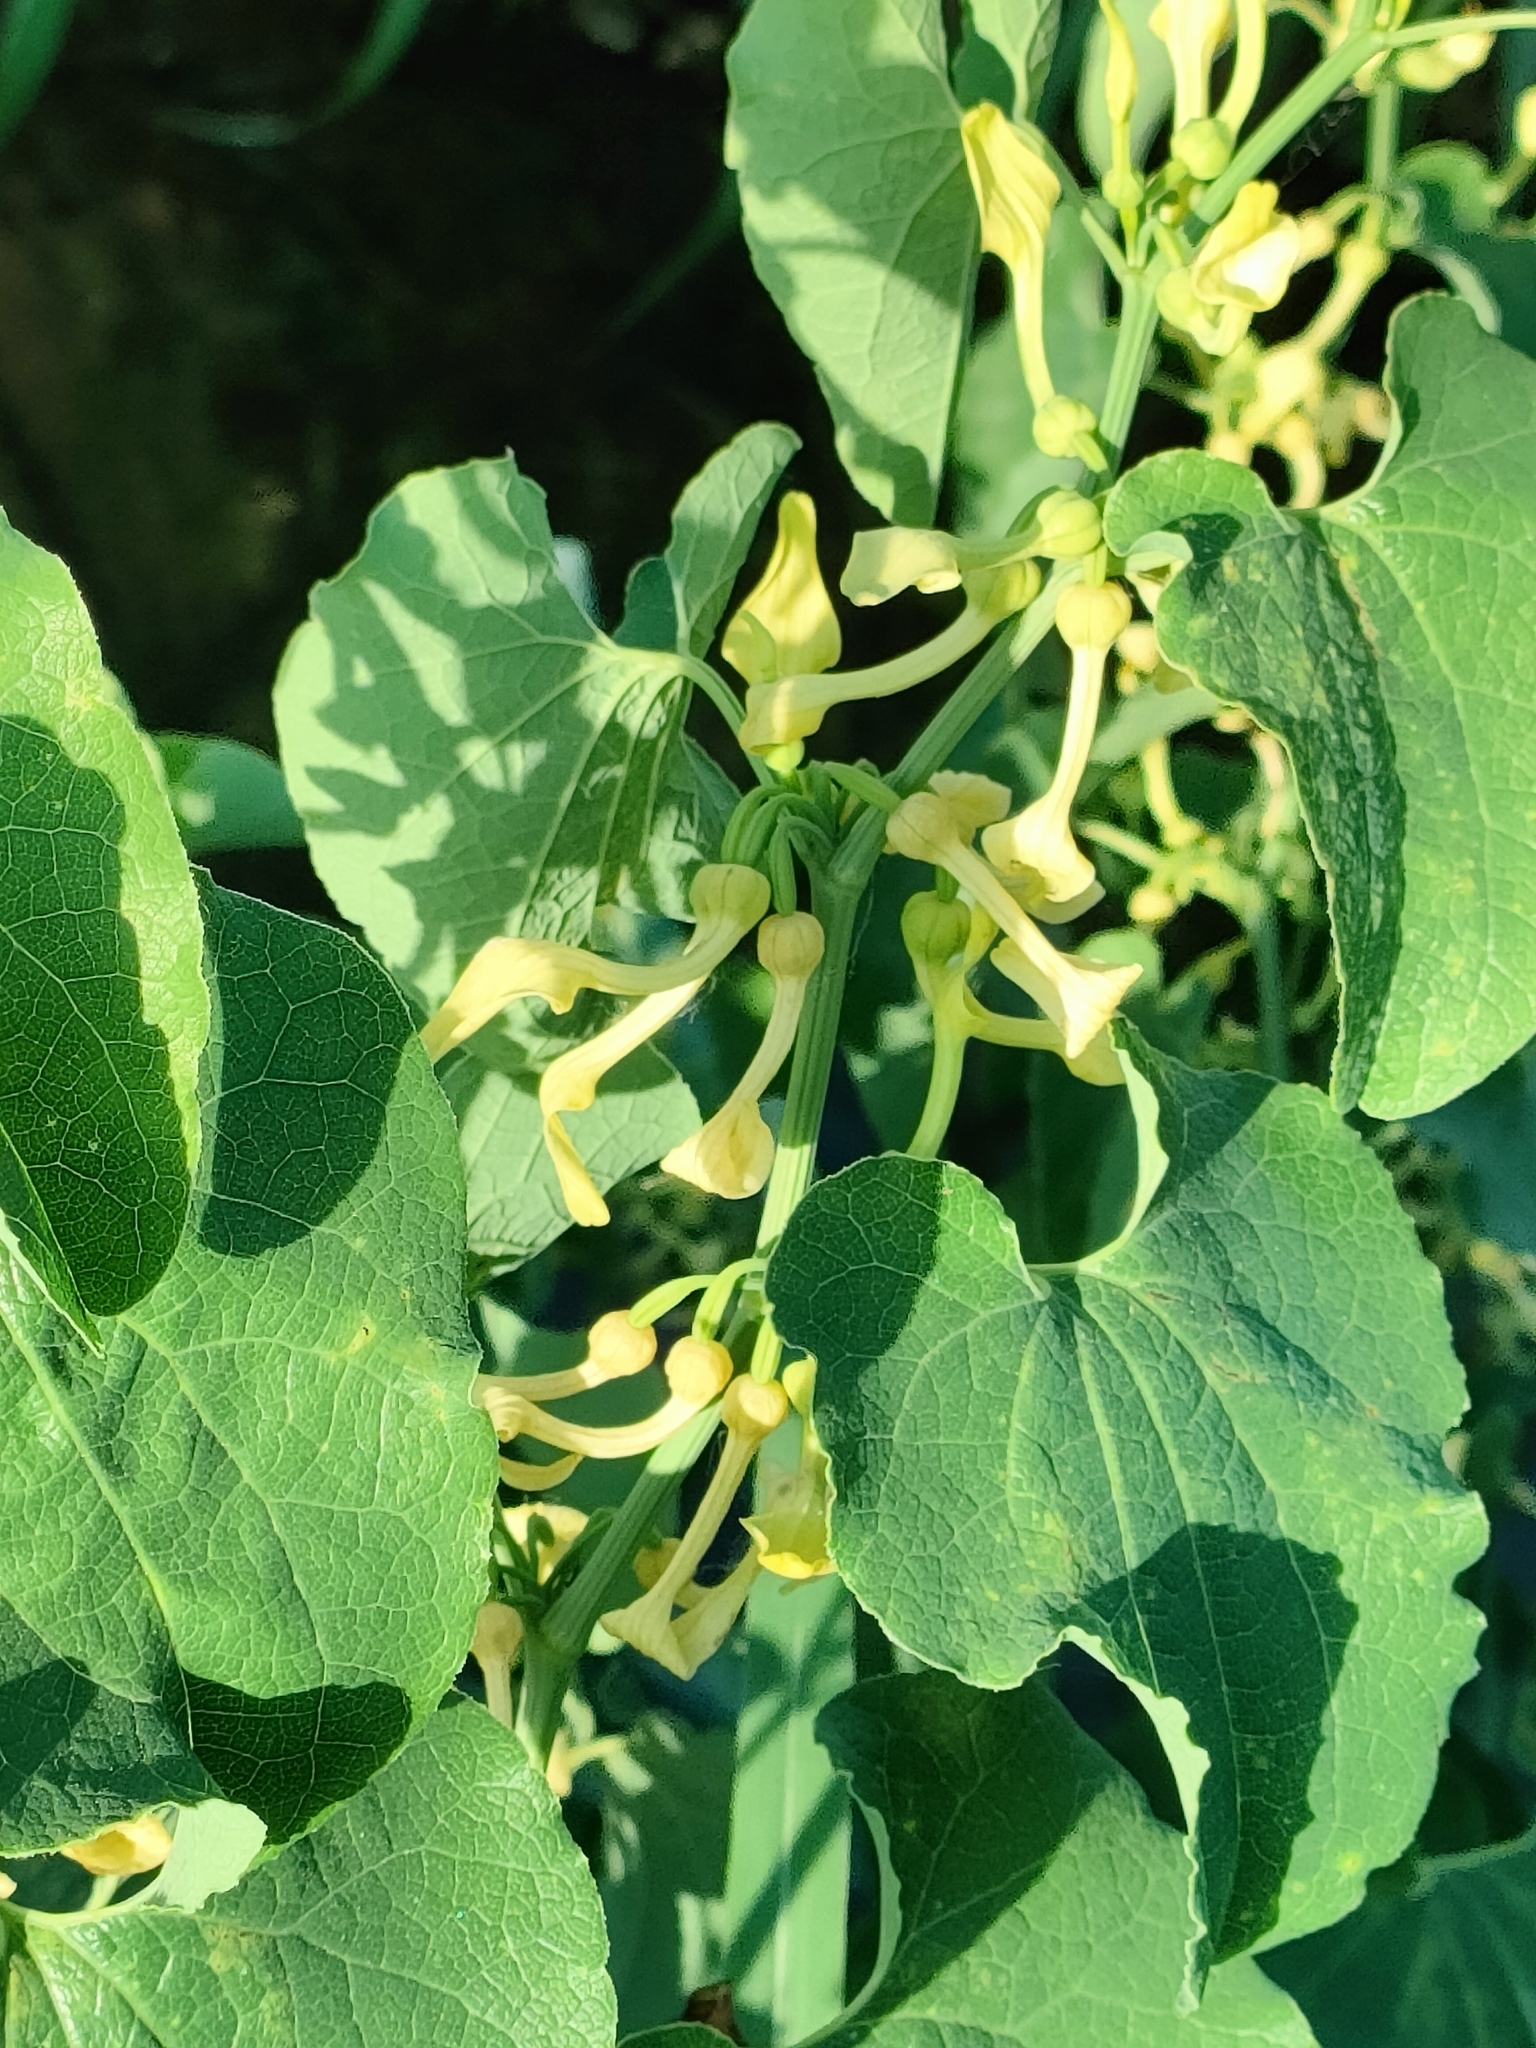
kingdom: Plantae
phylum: Tracheophyta
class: Magnoliopsida
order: Piperales
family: Aristolochiaceae
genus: Aristolochia
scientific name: Aristolochia clematitis
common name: Birthwort
